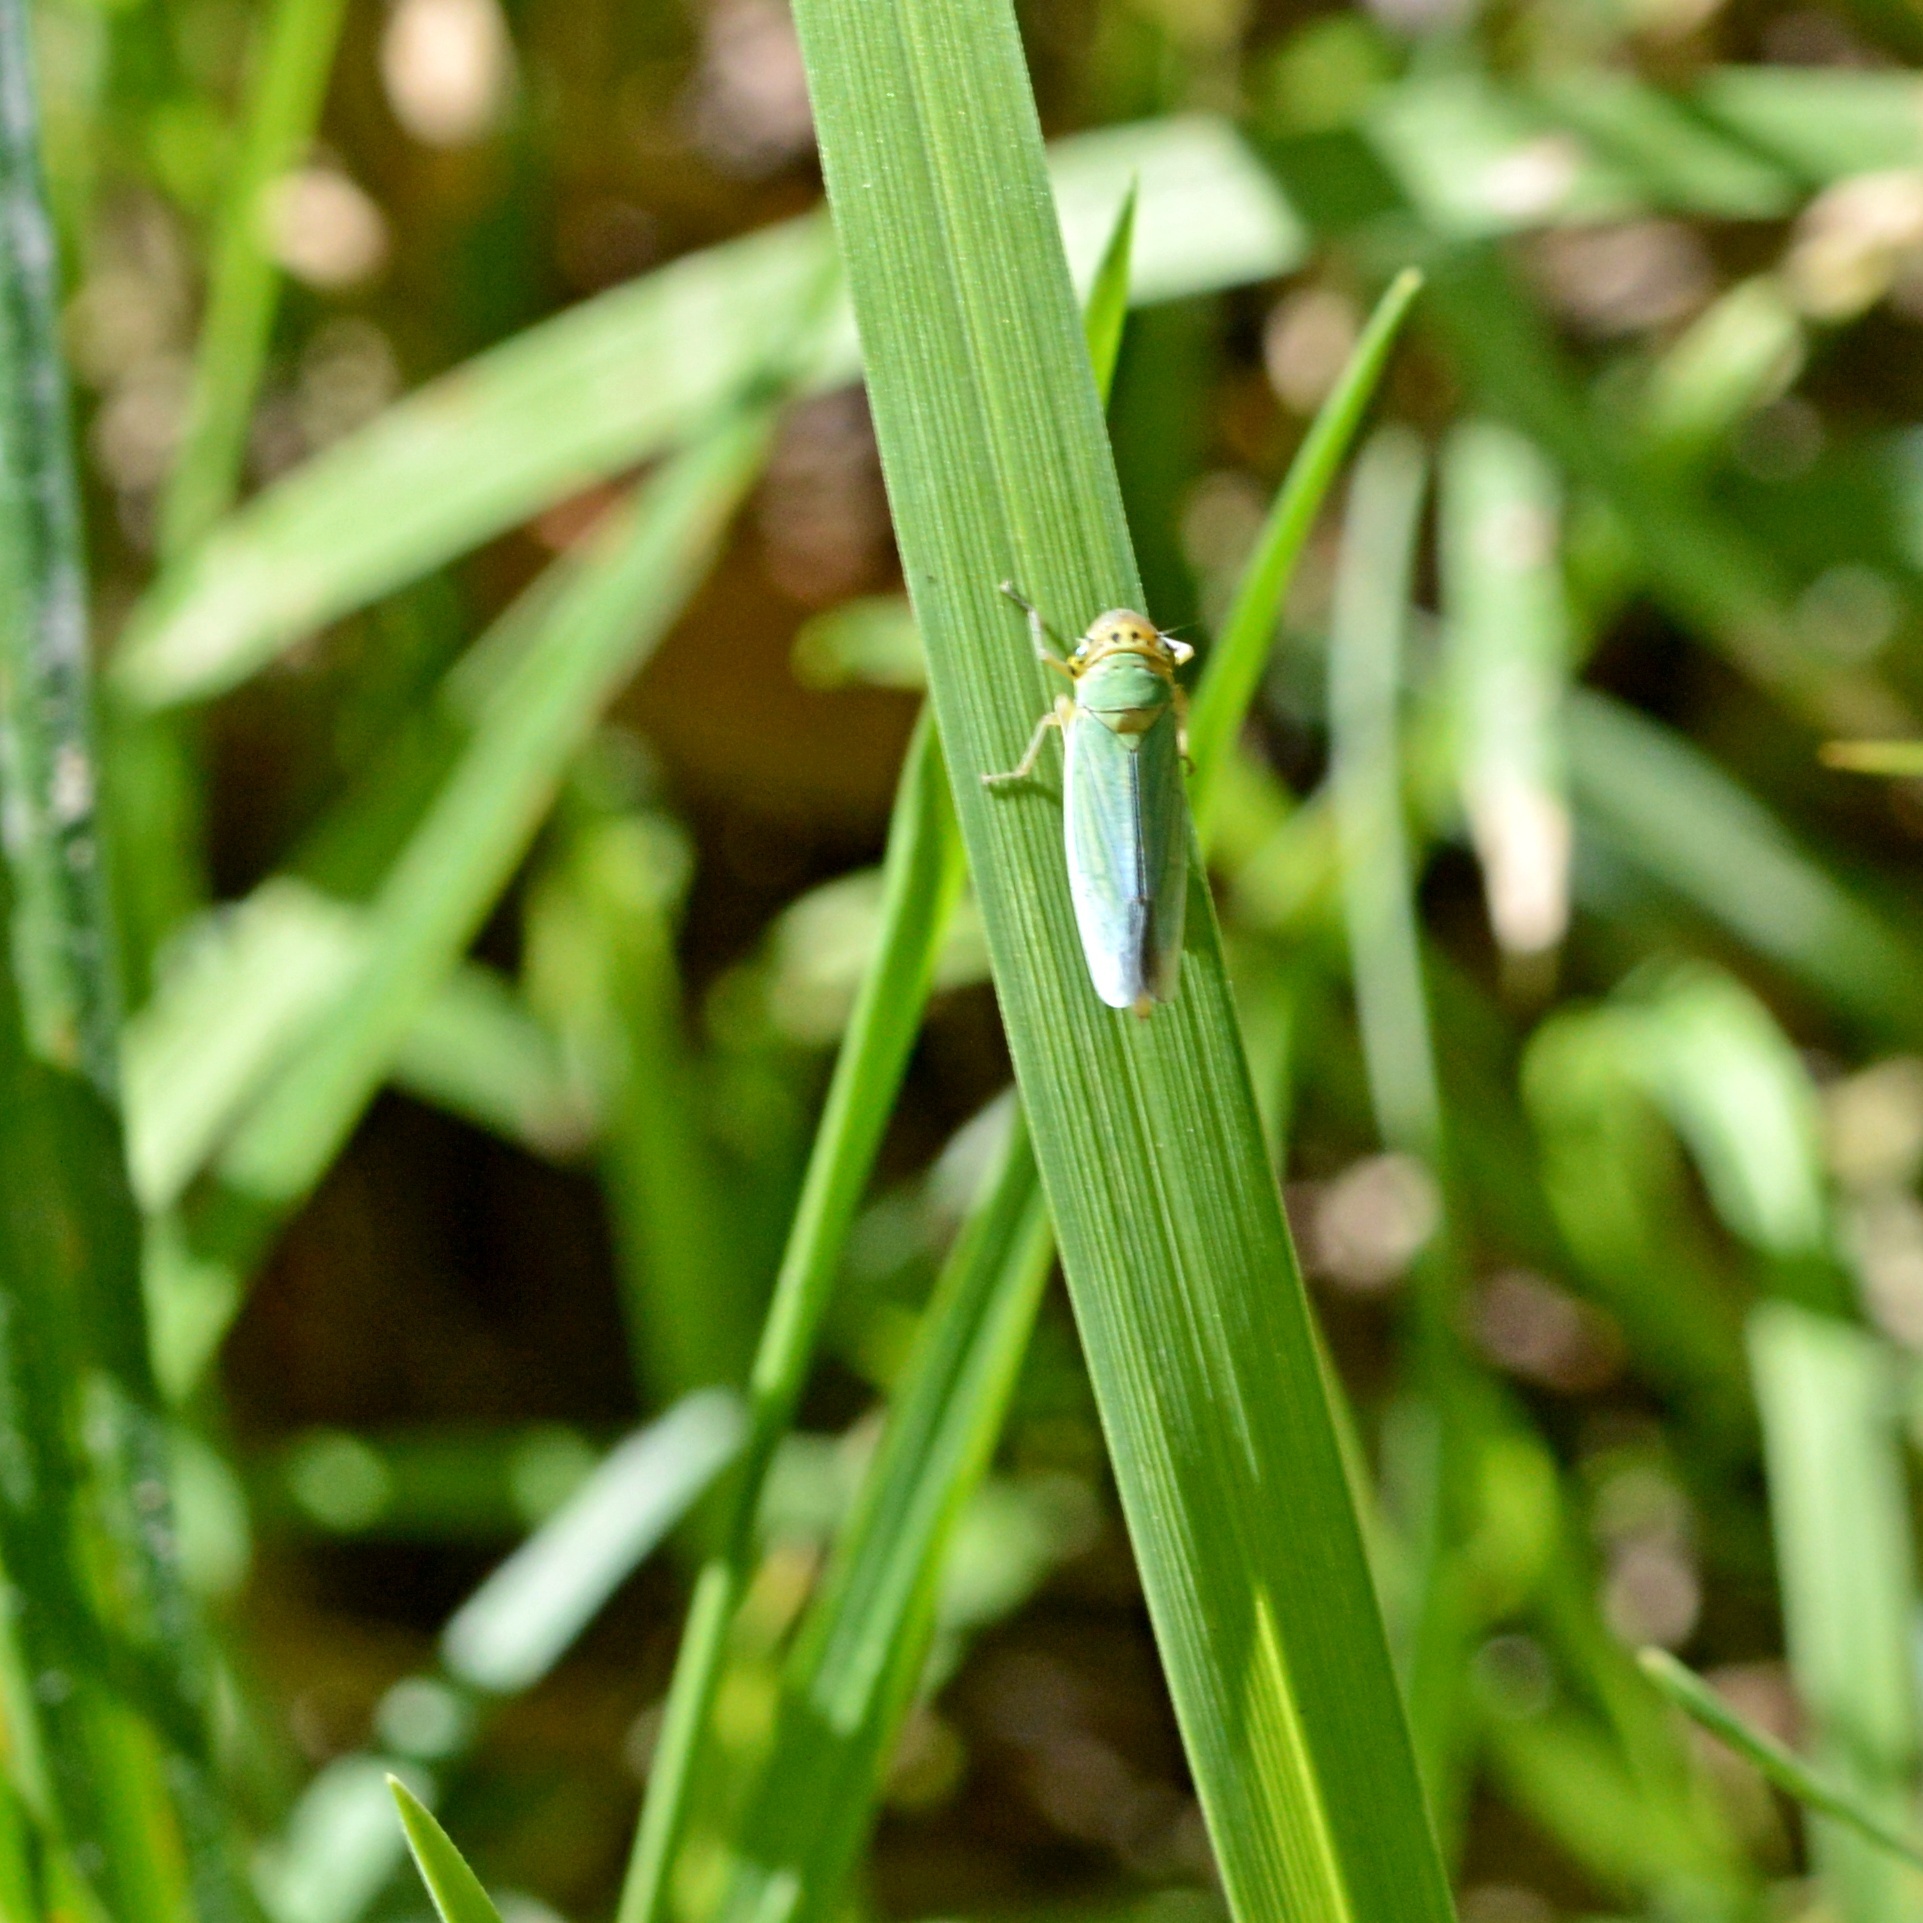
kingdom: Animalia
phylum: Arthropoda
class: Insecta
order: Hemiptera
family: Cicadellidae
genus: Cicadella
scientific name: Cicadella viridis
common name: Leafhopper
